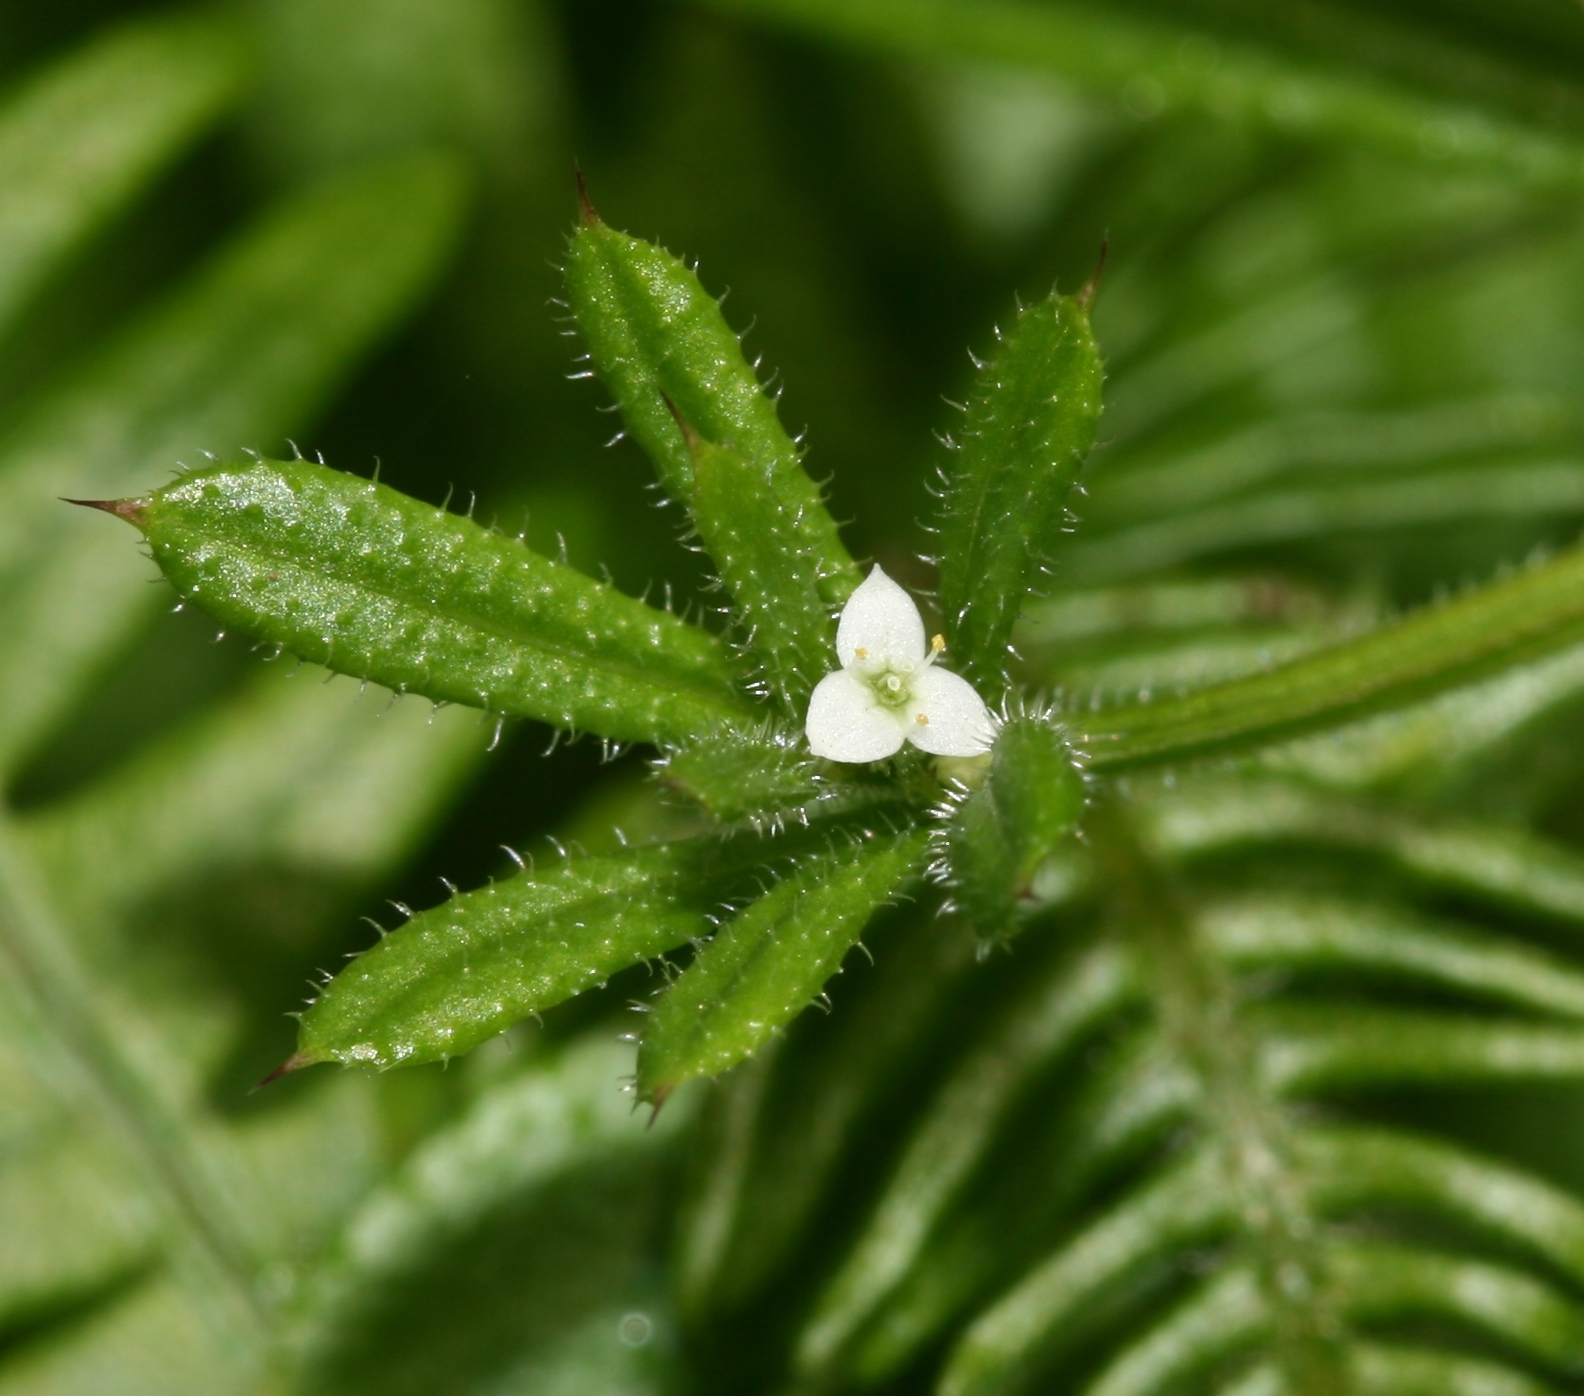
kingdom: Plantae
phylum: Tracheophyta
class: Magnoliopsida
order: Gentianales
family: Rubiaceae
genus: Galium
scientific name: Galium aparine
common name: Cleavers
